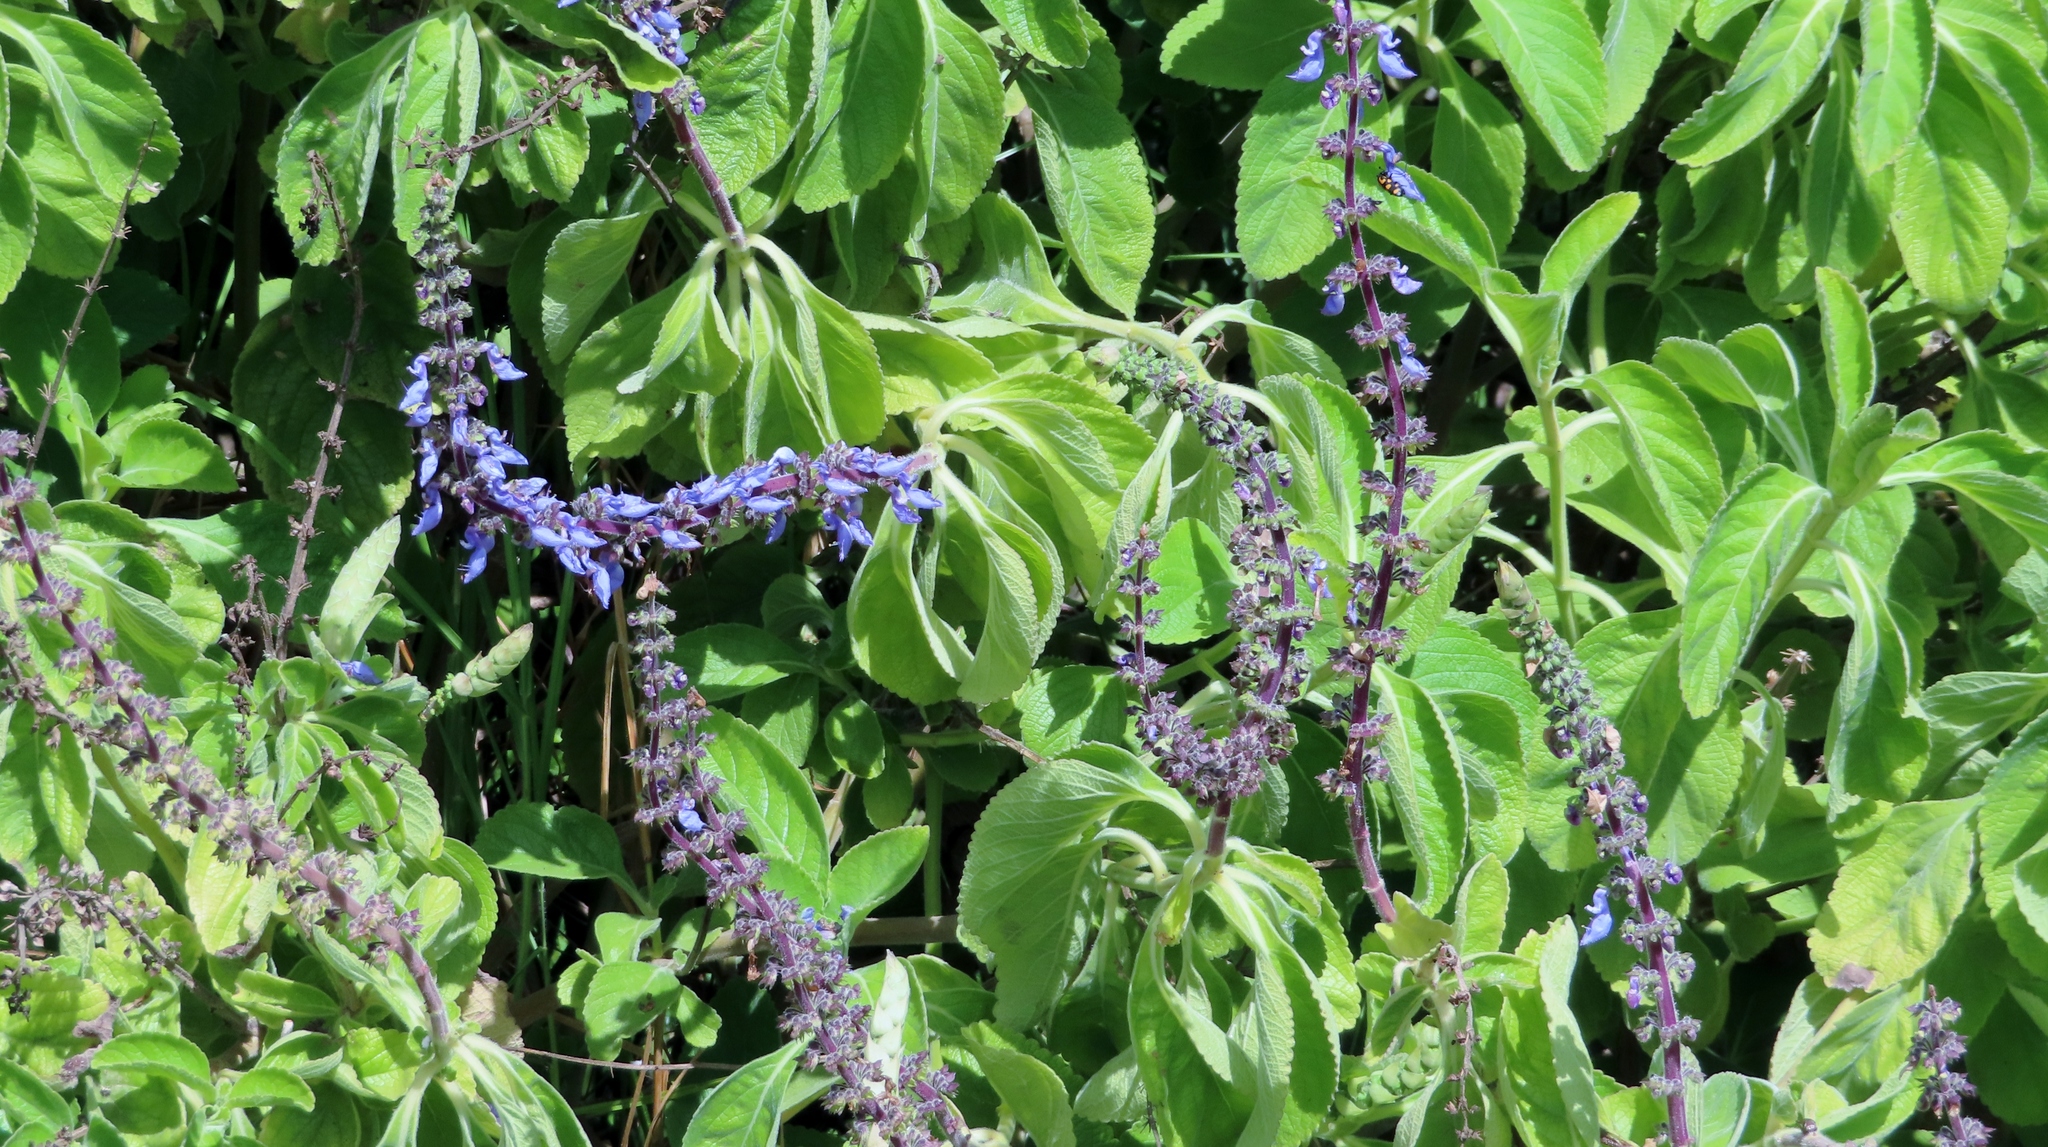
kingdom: Plantae
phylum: Tracheophyta
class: Magnoliopsida
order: Lamiales
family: Lamiaceae
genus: Coleus
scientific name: Coleus barbatus
